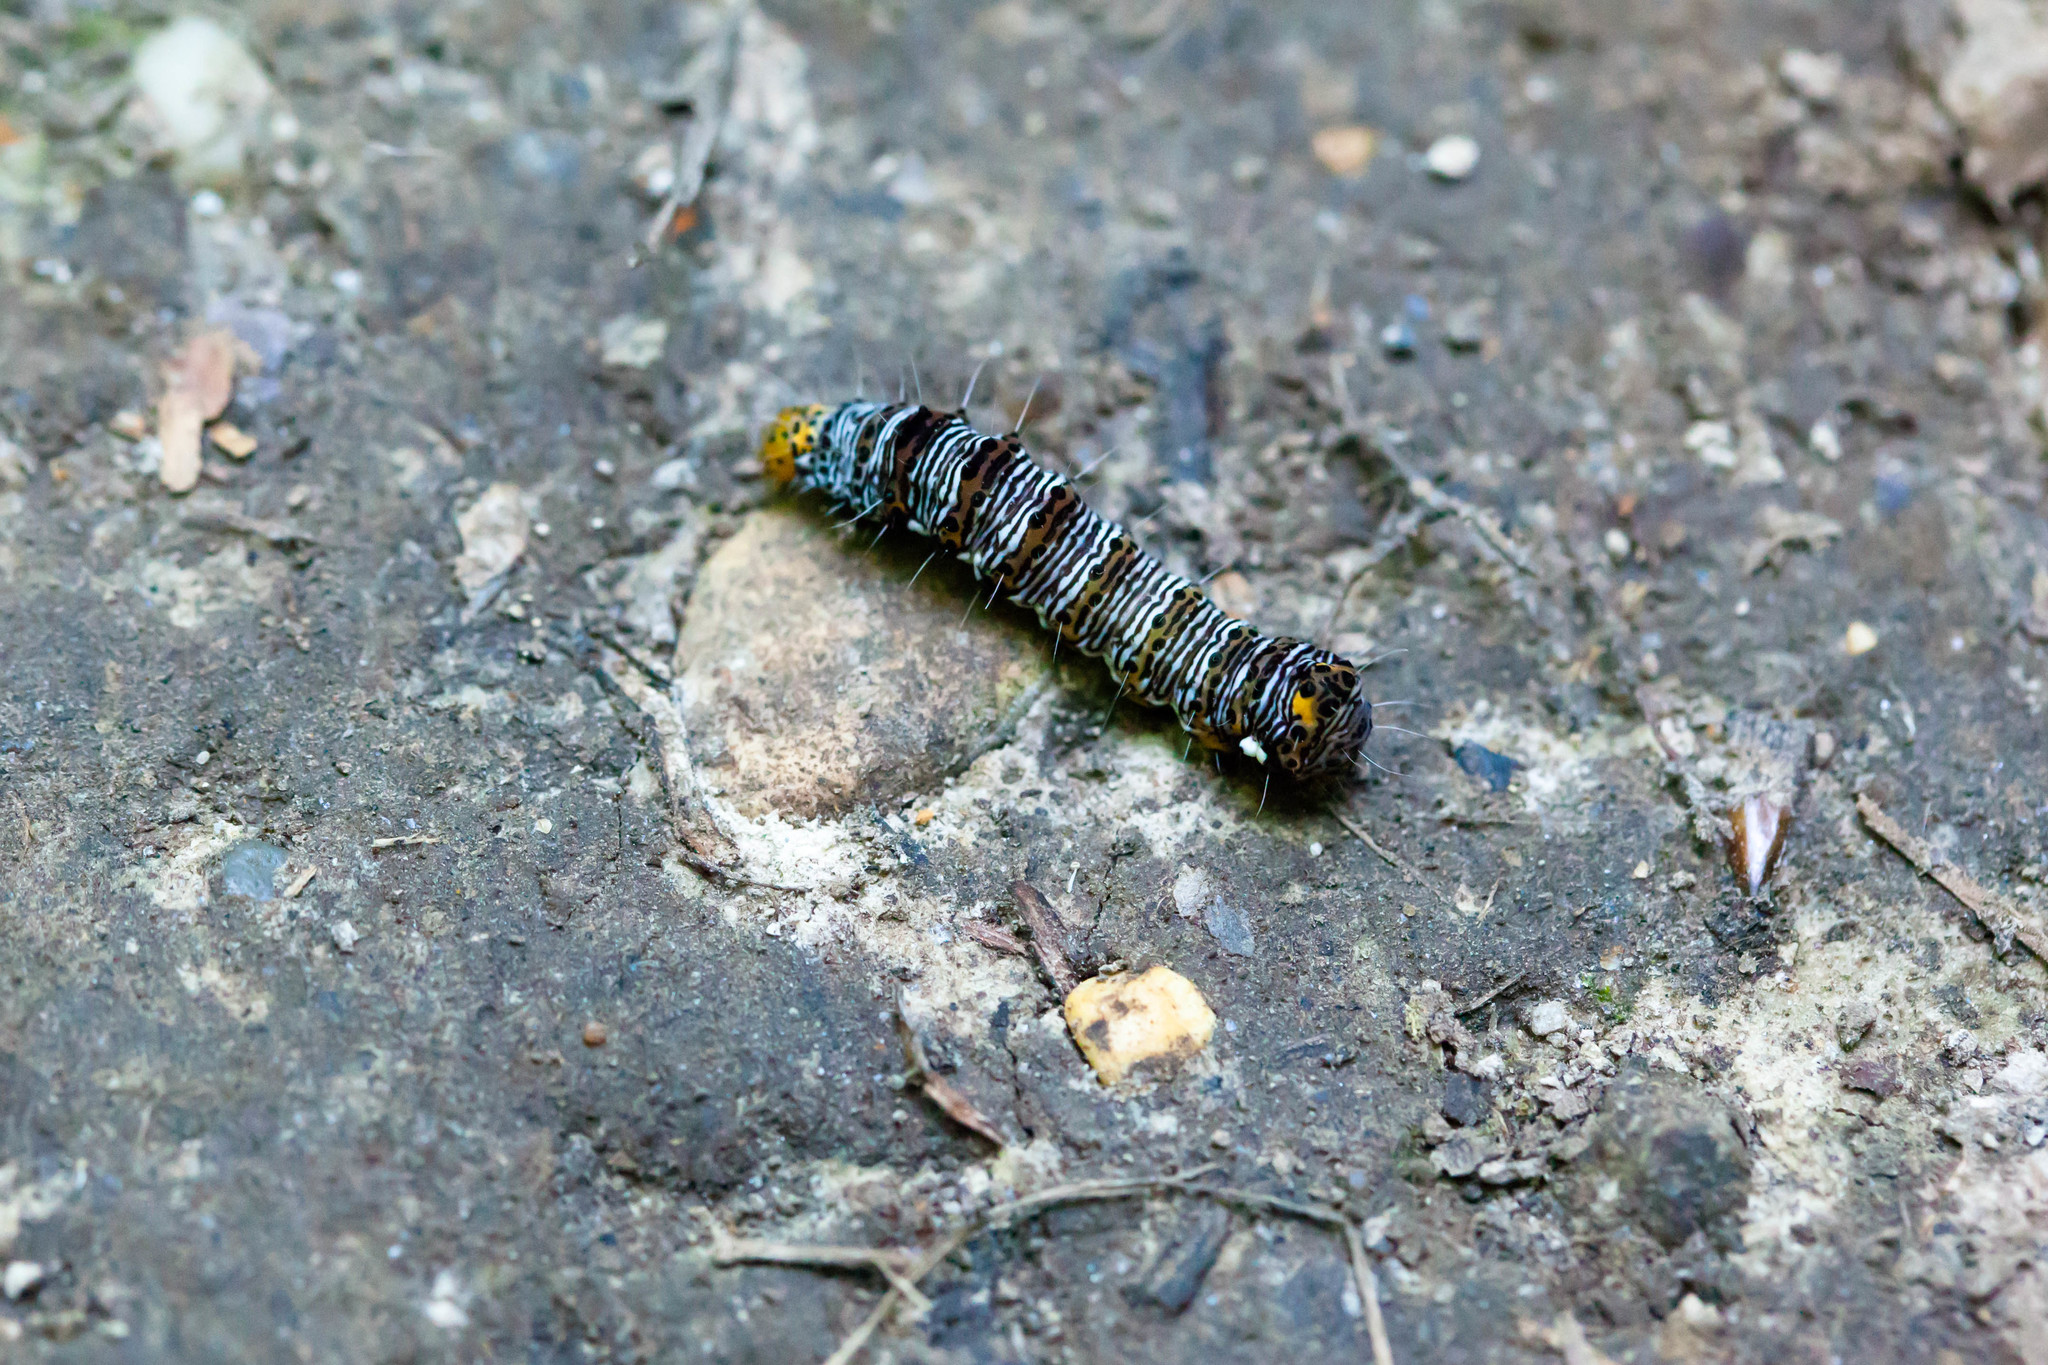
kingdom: Animalia
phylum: Arthropoda
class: Insecta
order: Lepidoptera
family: Noctuidae
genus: Alypia
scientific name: Alypia octomaculata
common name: Eight-spotted forester
